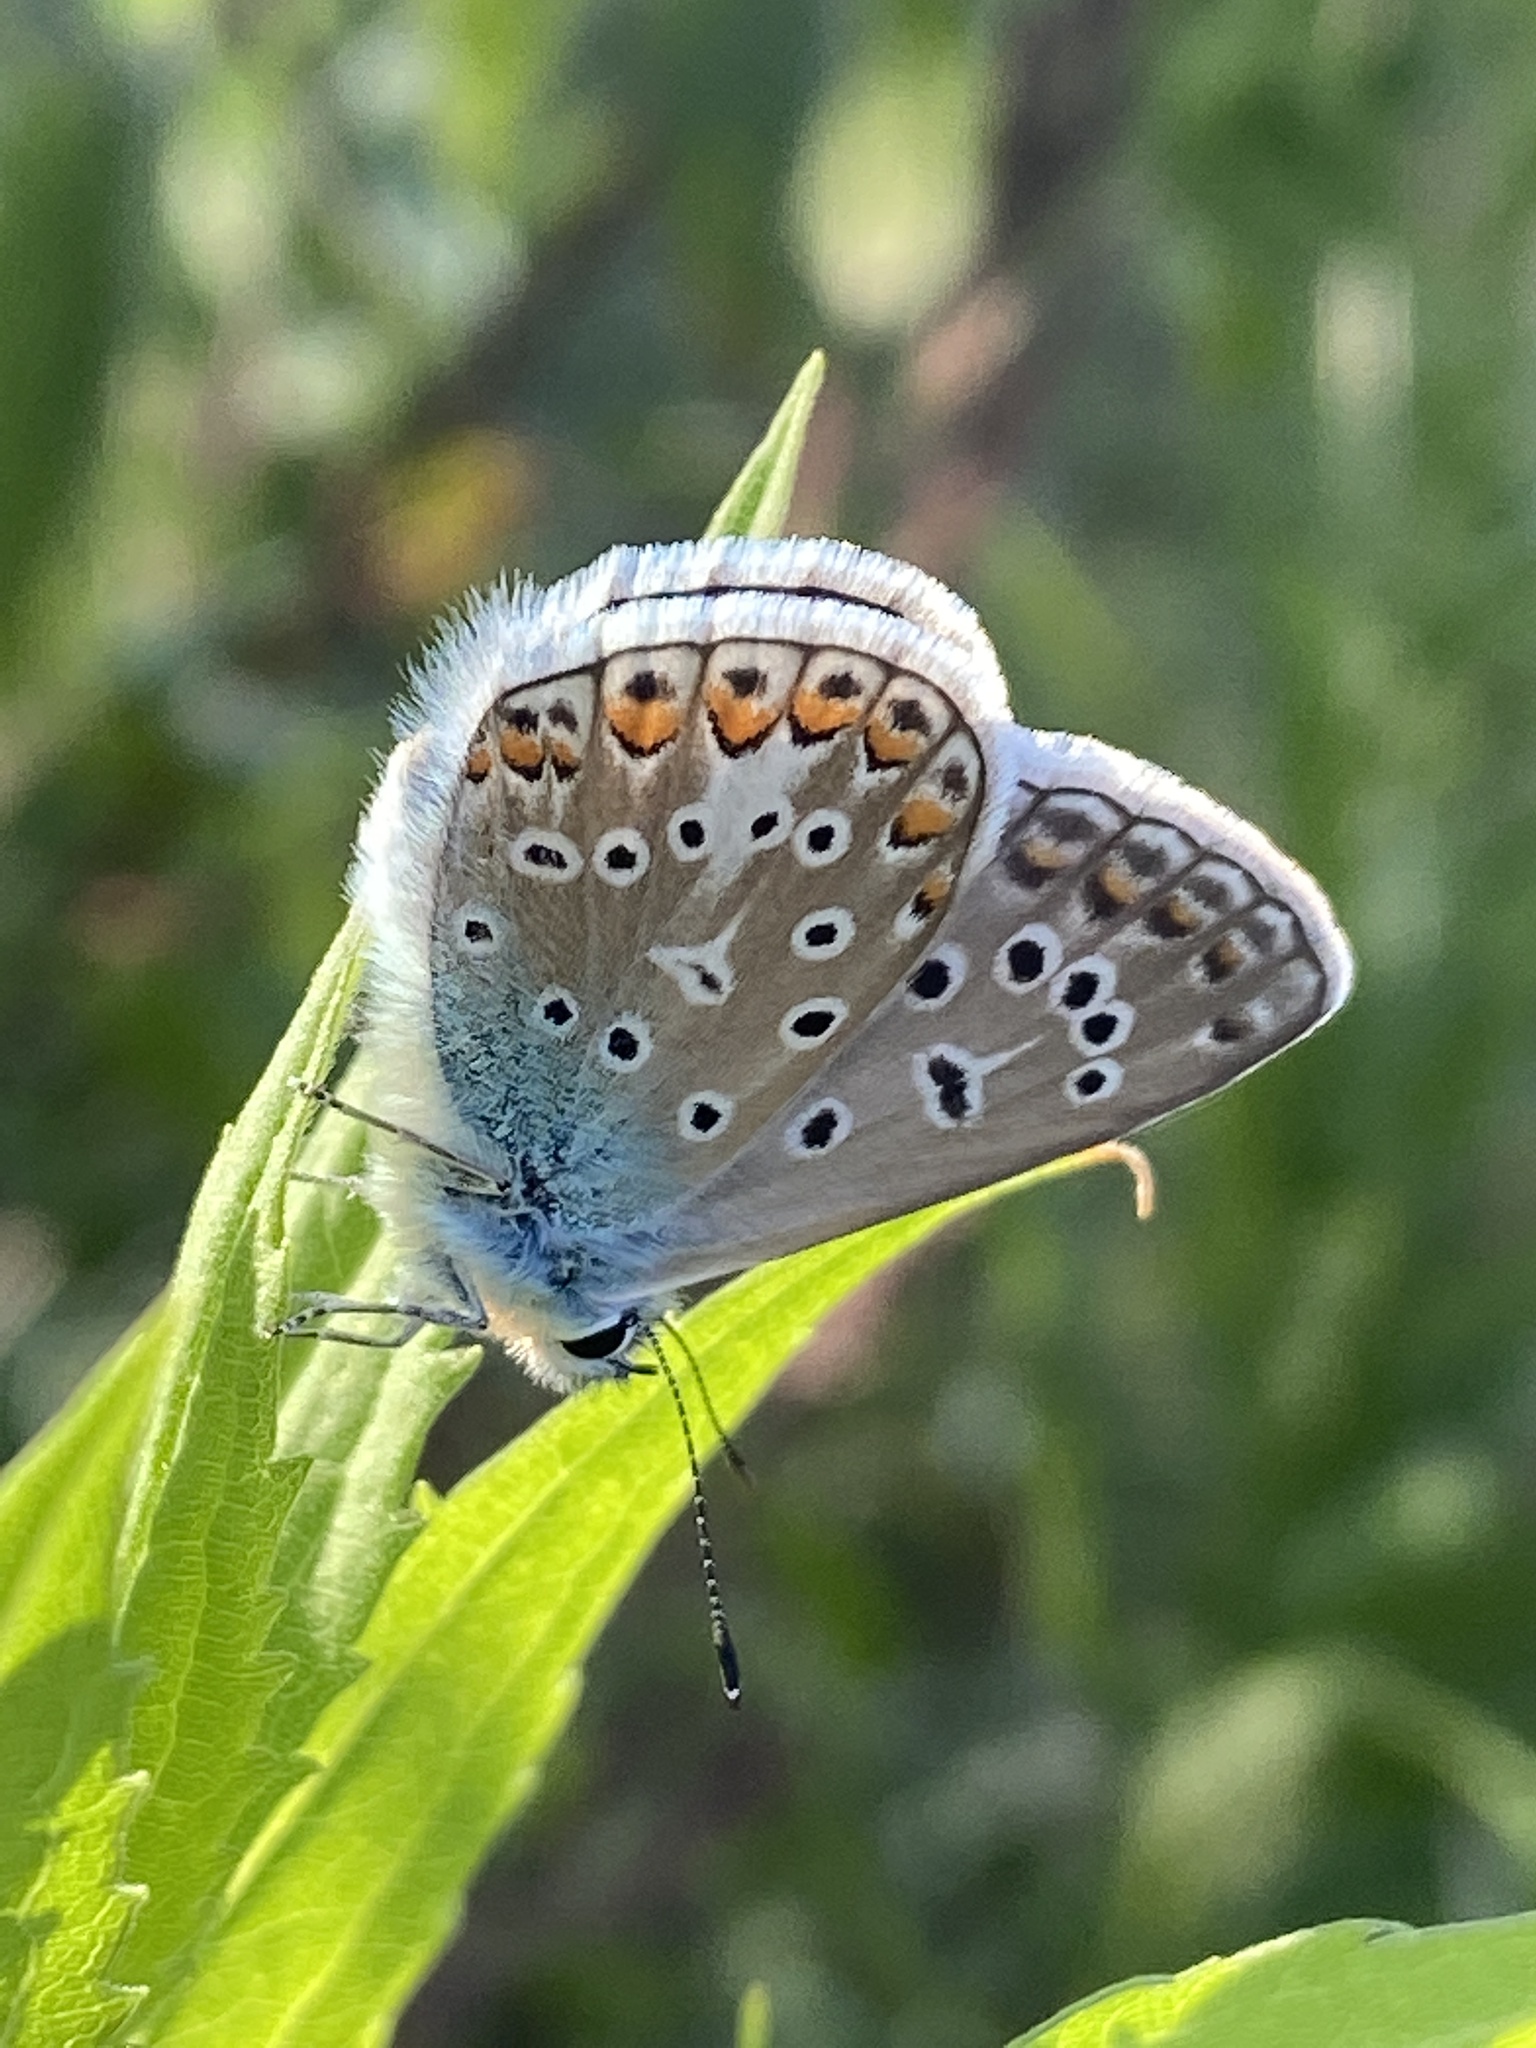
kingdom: Animalia
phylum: Arthropoda
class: Insecta
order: Lepidoptera
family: Lycaenidae
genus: Polyommatus
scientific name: Polyommatus icarus
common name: Common blue
